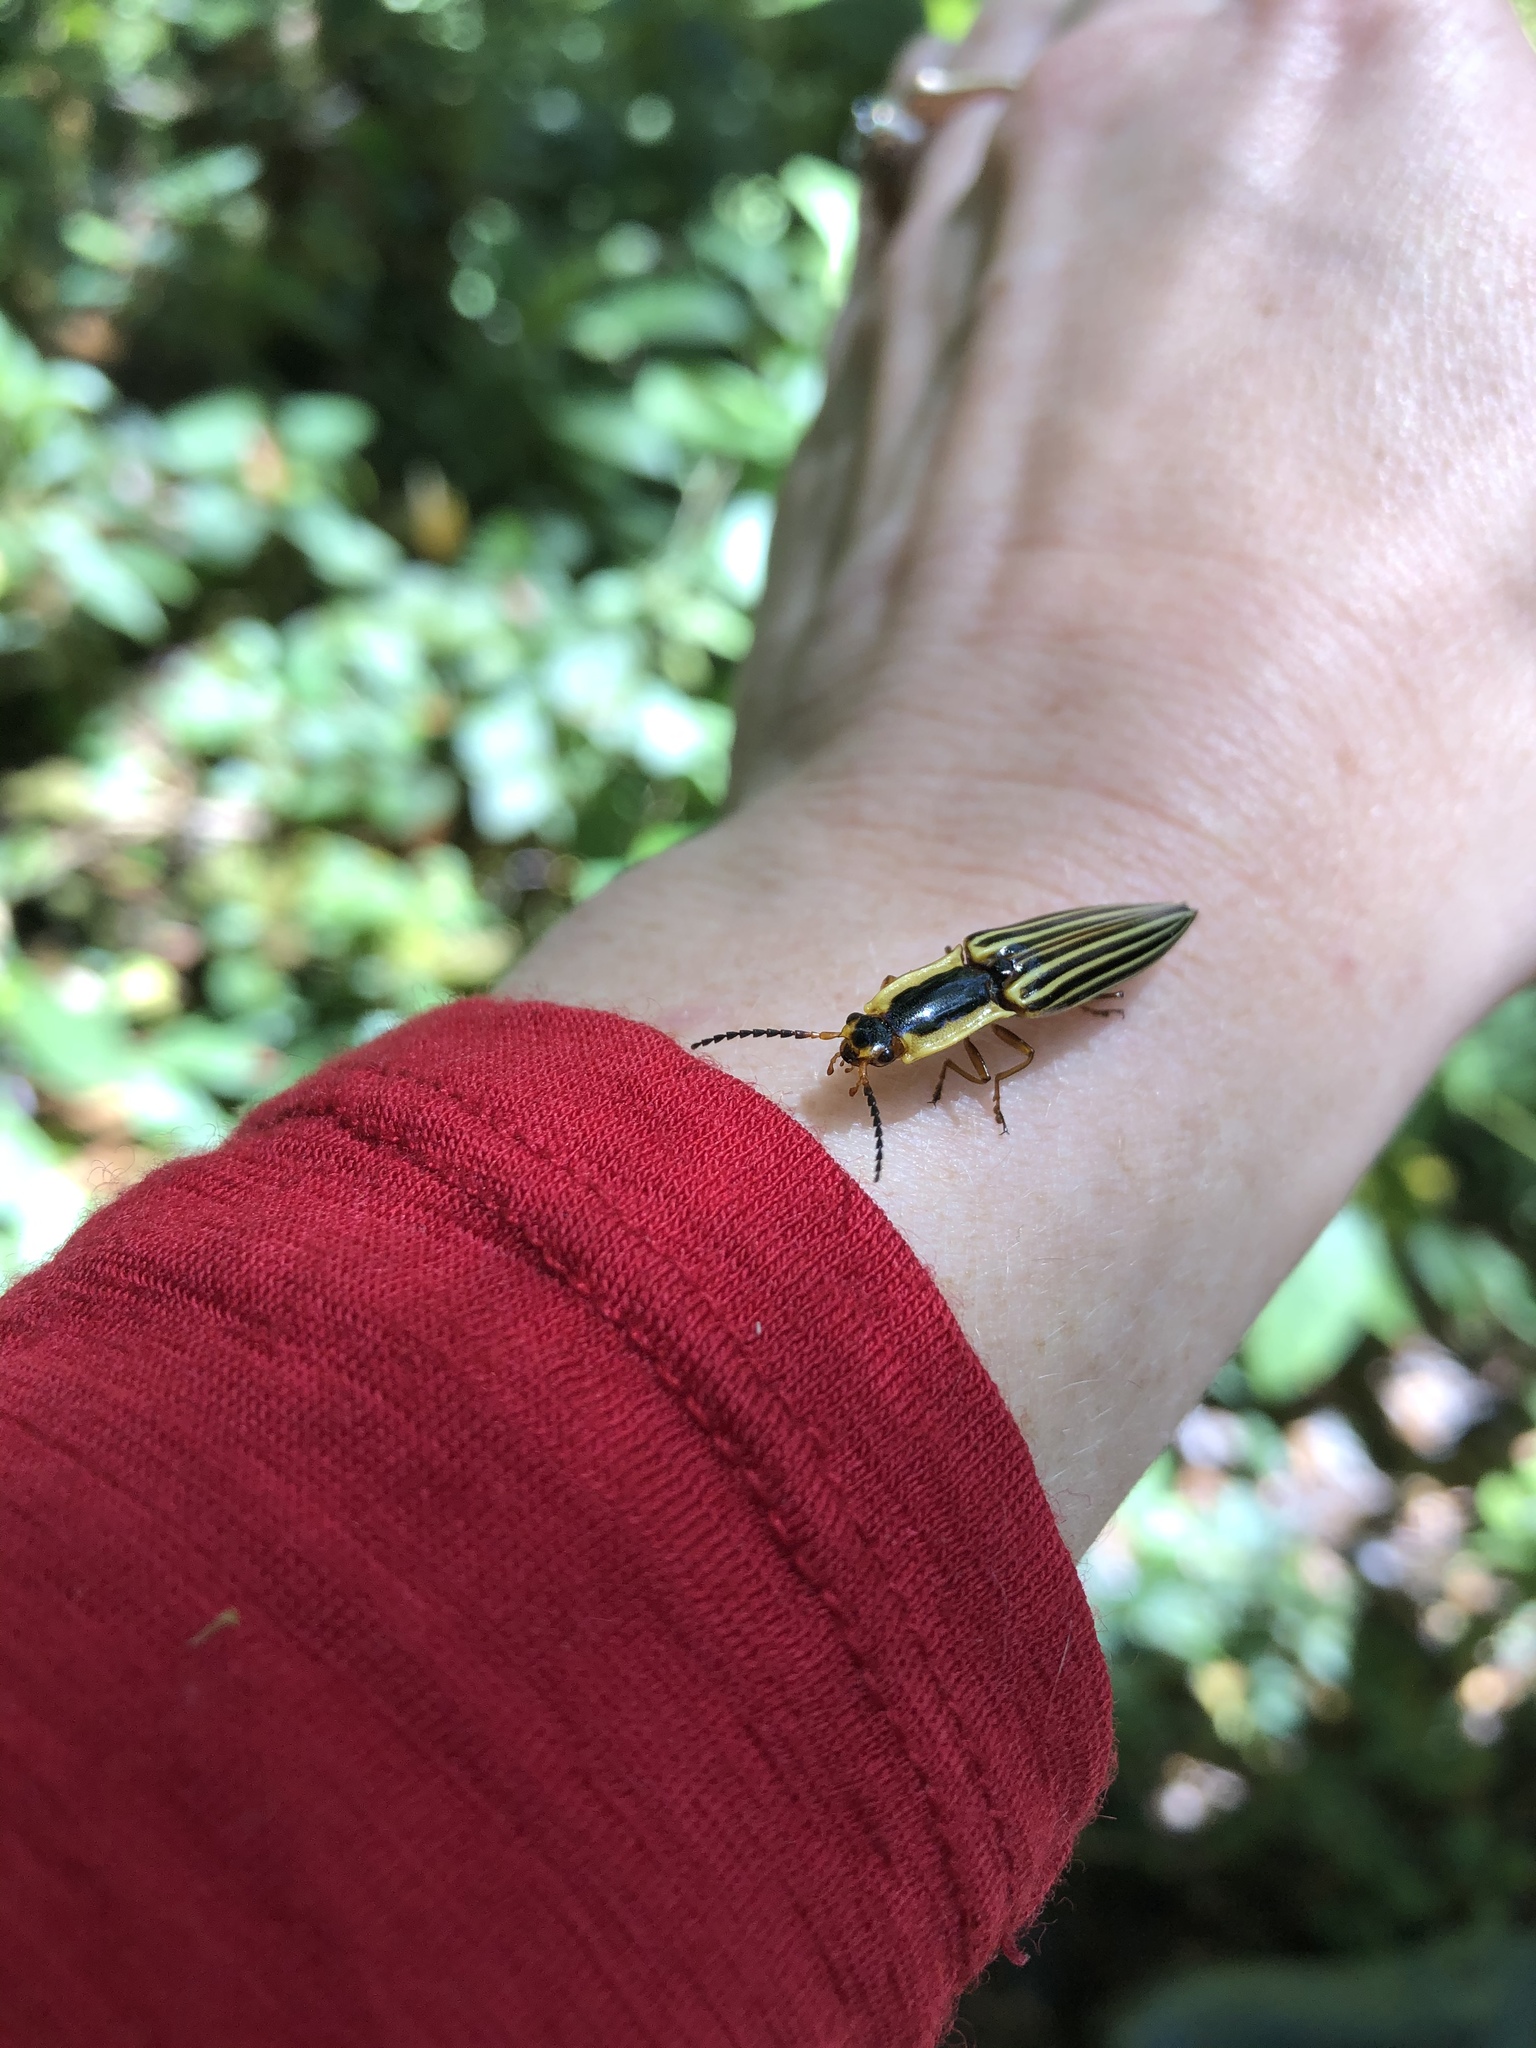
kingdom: Animalia
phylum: Arthropoda
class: Insecta
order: Coleoptera
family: Elateridae
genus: Semiotus
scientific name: Semiotus
